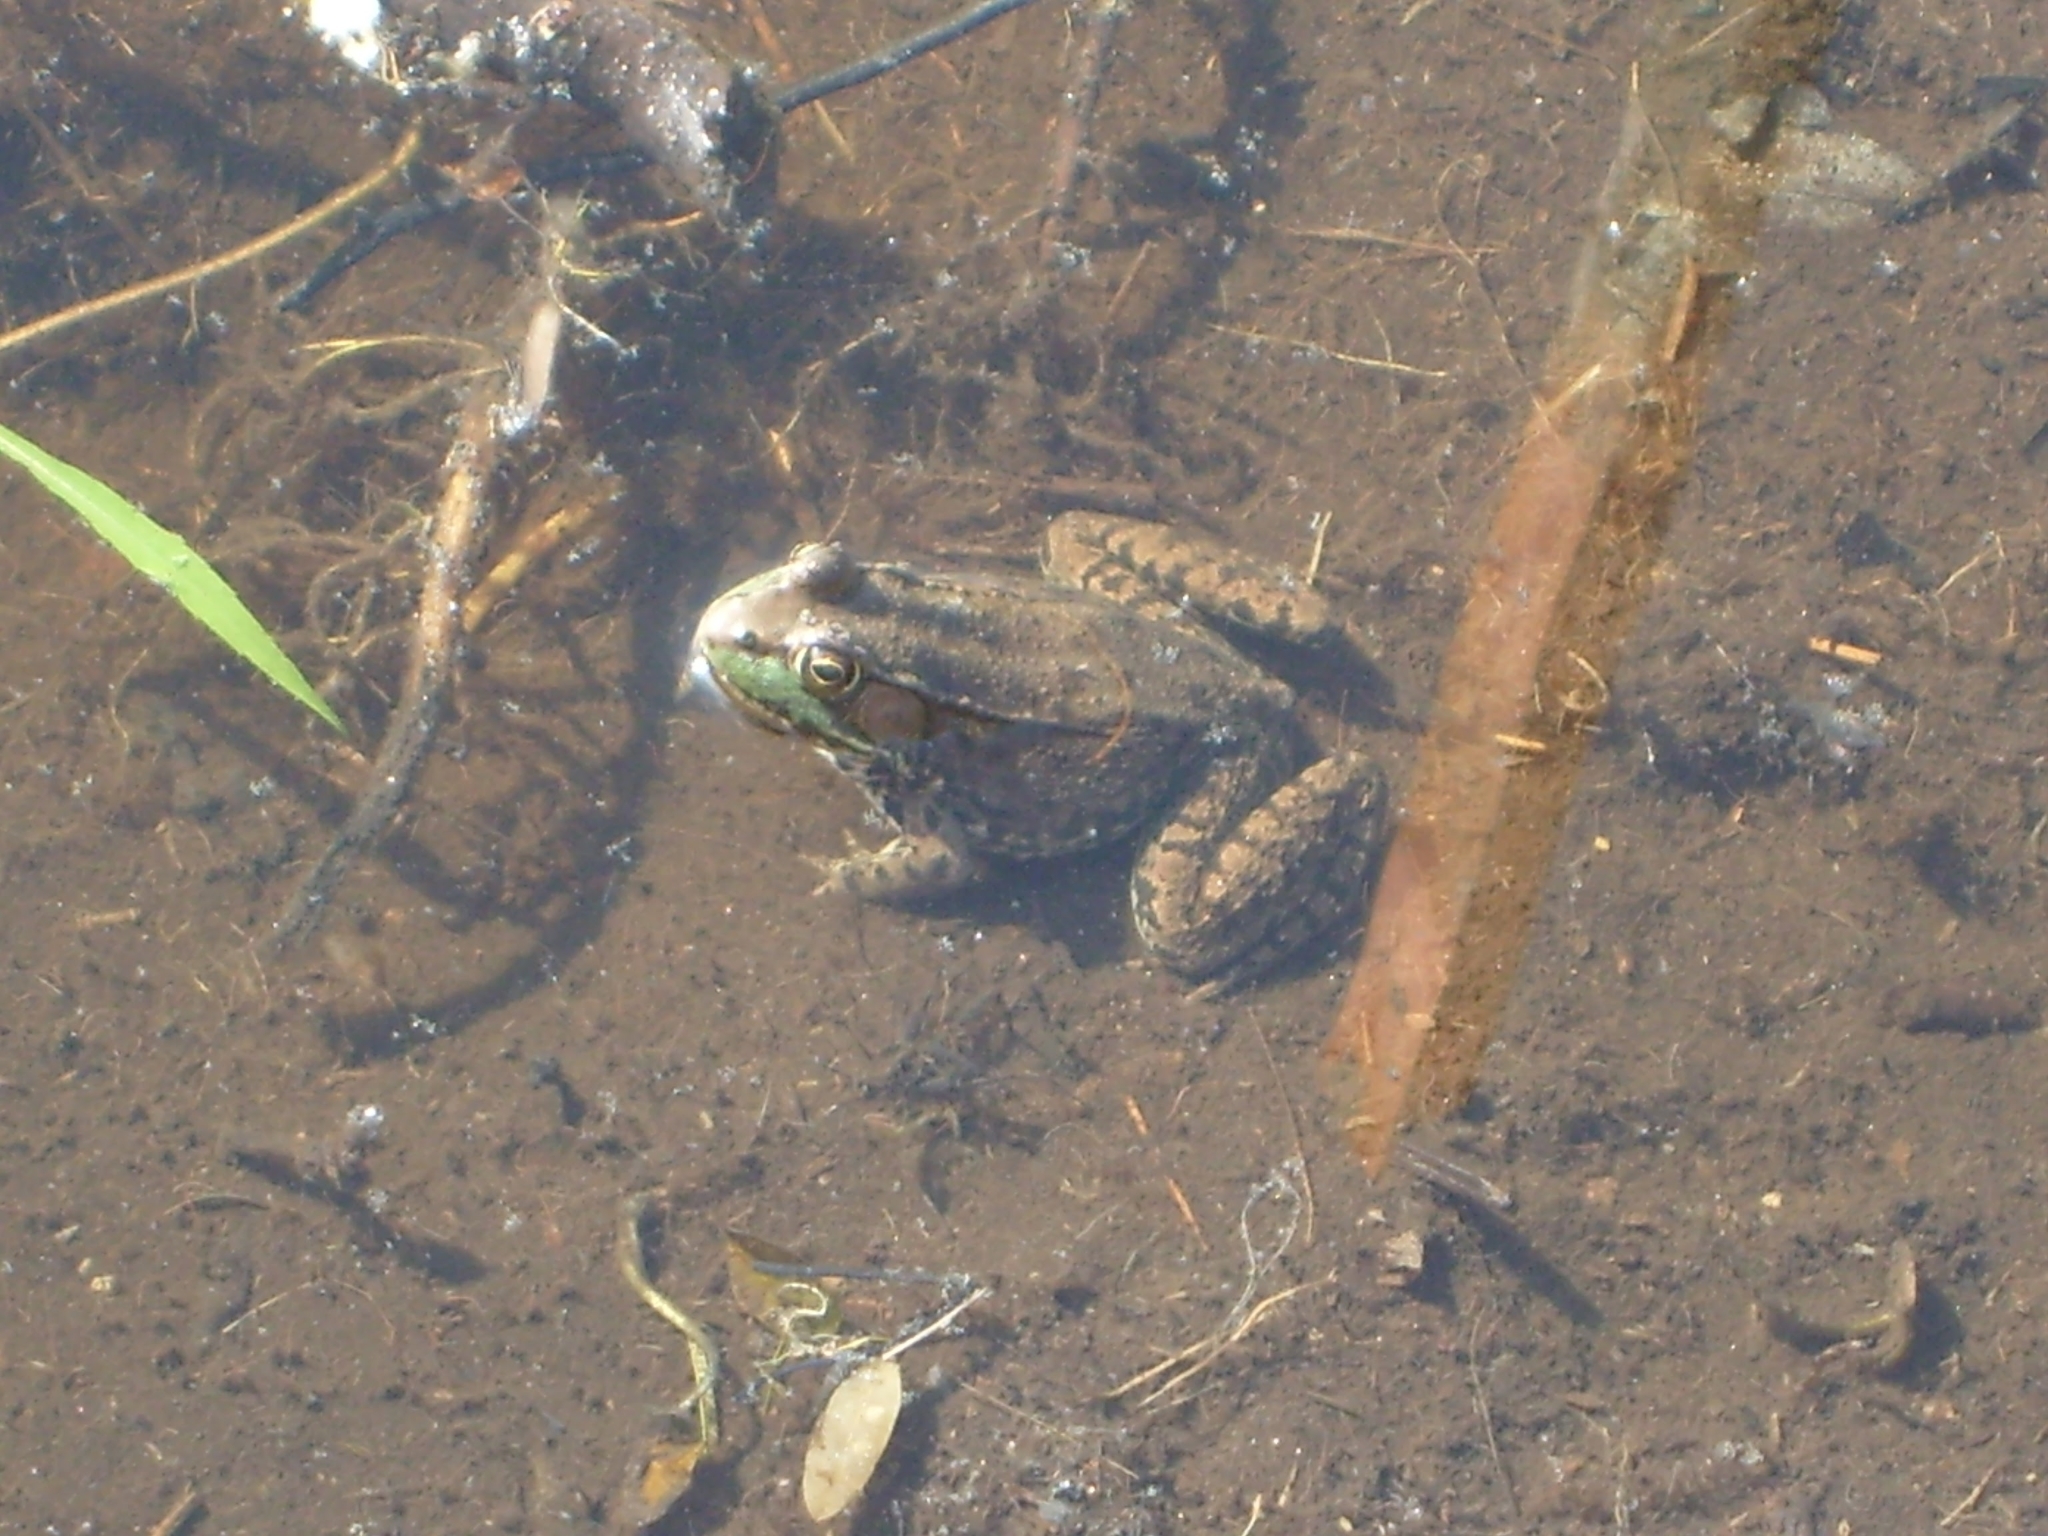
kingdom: Animalia
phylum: Chordata
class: Amphibia
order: Anura
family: Ranidae
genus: Lithobates
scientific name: Lithobates clamitans
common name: Green frog
